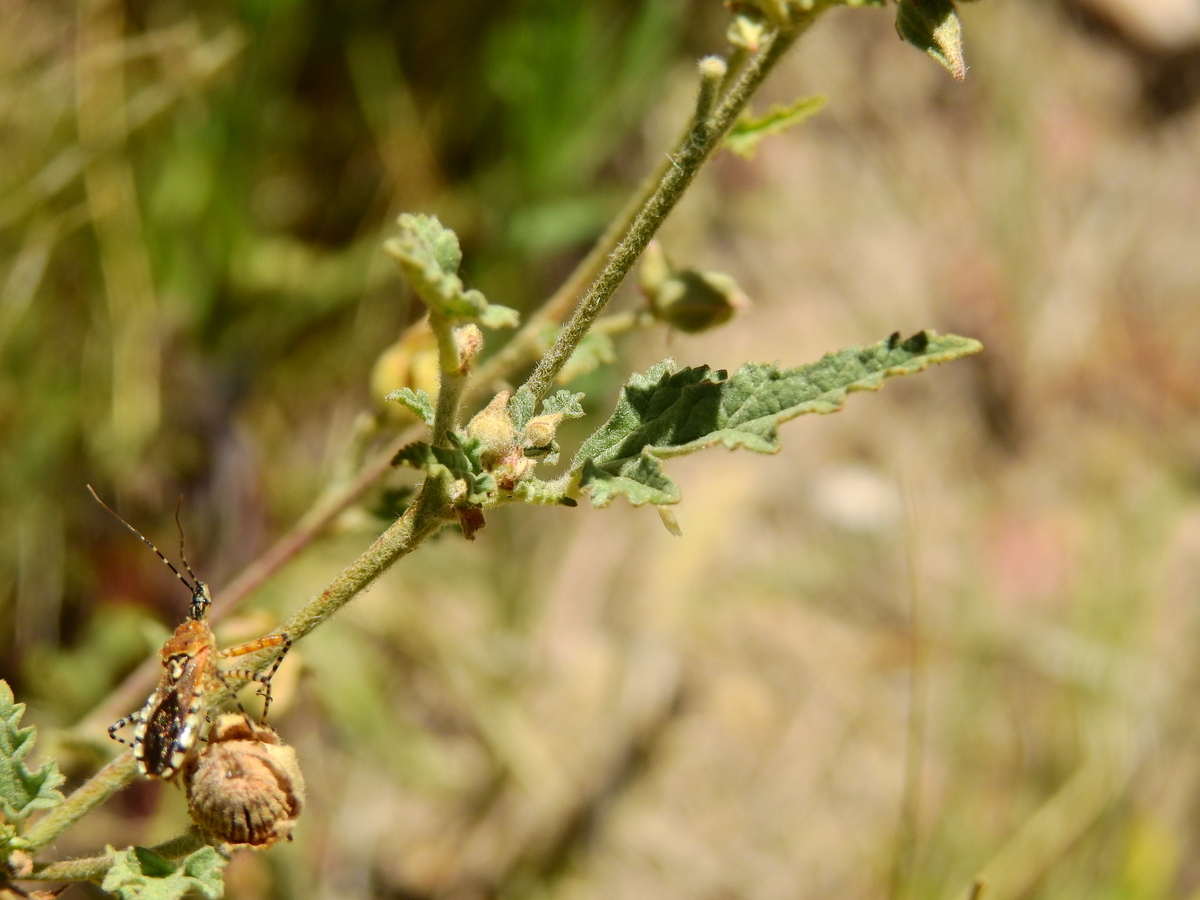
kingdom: Plantae
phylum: Tracheophyta
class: Magnoliopsida
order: Malvales
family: Malvaceae
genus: Sphaeralcea
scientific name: Sphaeralcea miniata
